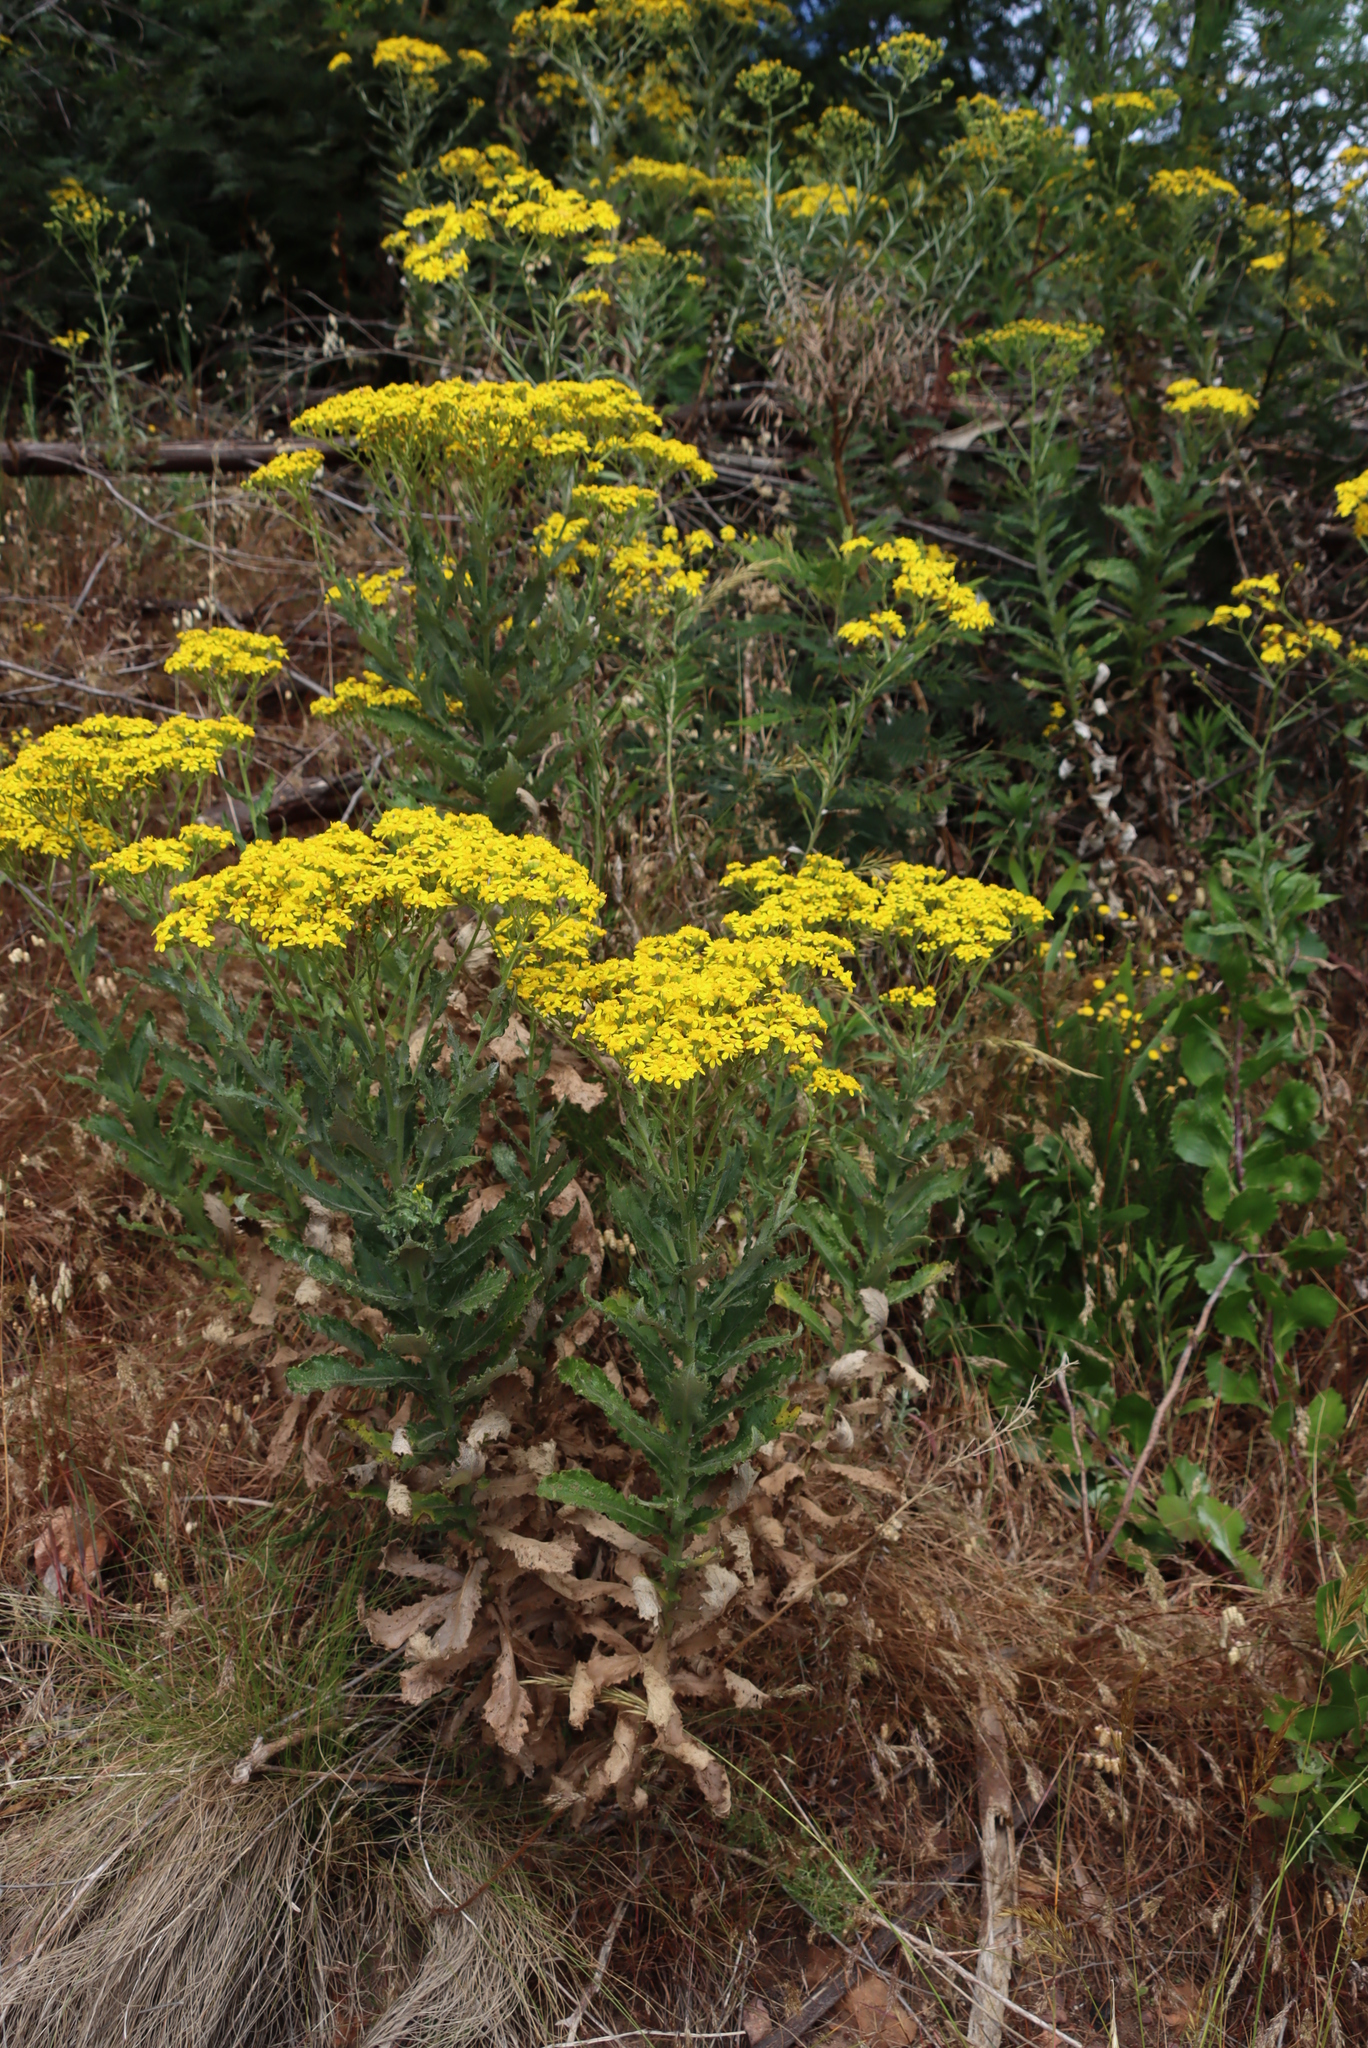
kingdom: Plantae
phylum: Tracheophyta
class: Magnoliopsida
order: Asterales
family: Asteraceae
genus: Senecio
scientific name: Senecio rigidus
